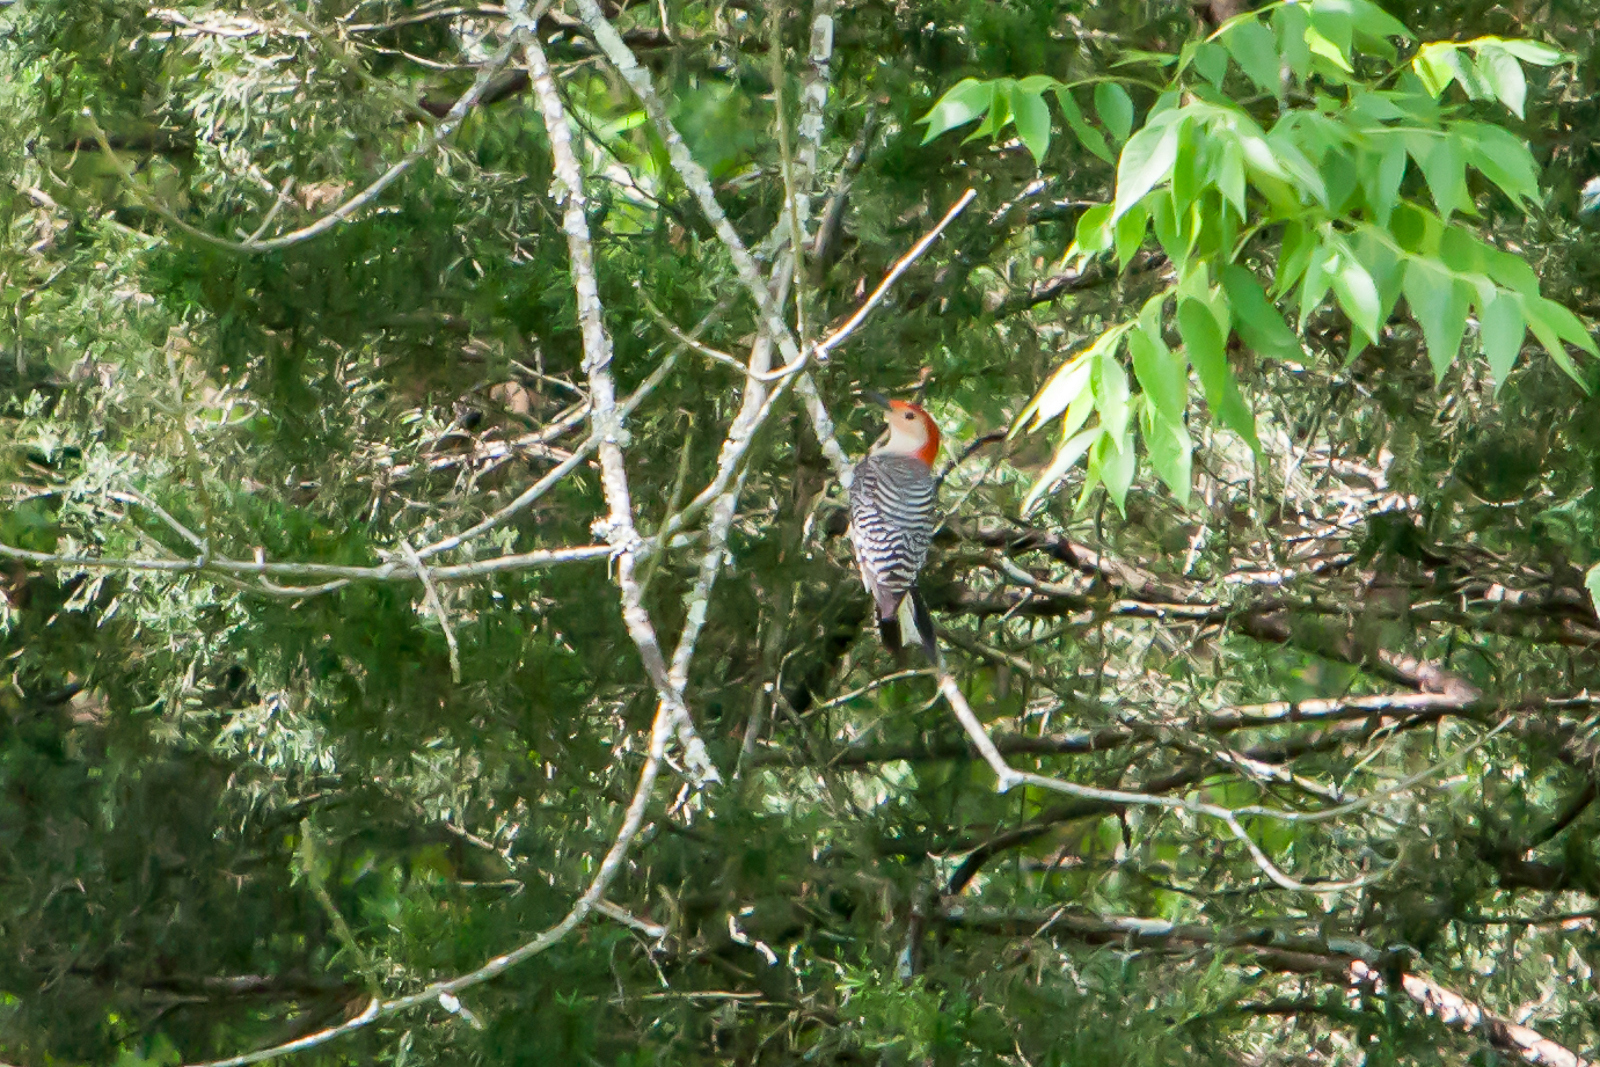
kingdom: Animalia
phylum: Chordata
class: Aves
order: Piciformes
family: Picidae
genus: Melanerpes
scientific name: Melanerpes carolinus
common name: Red-bellied woodpecker
